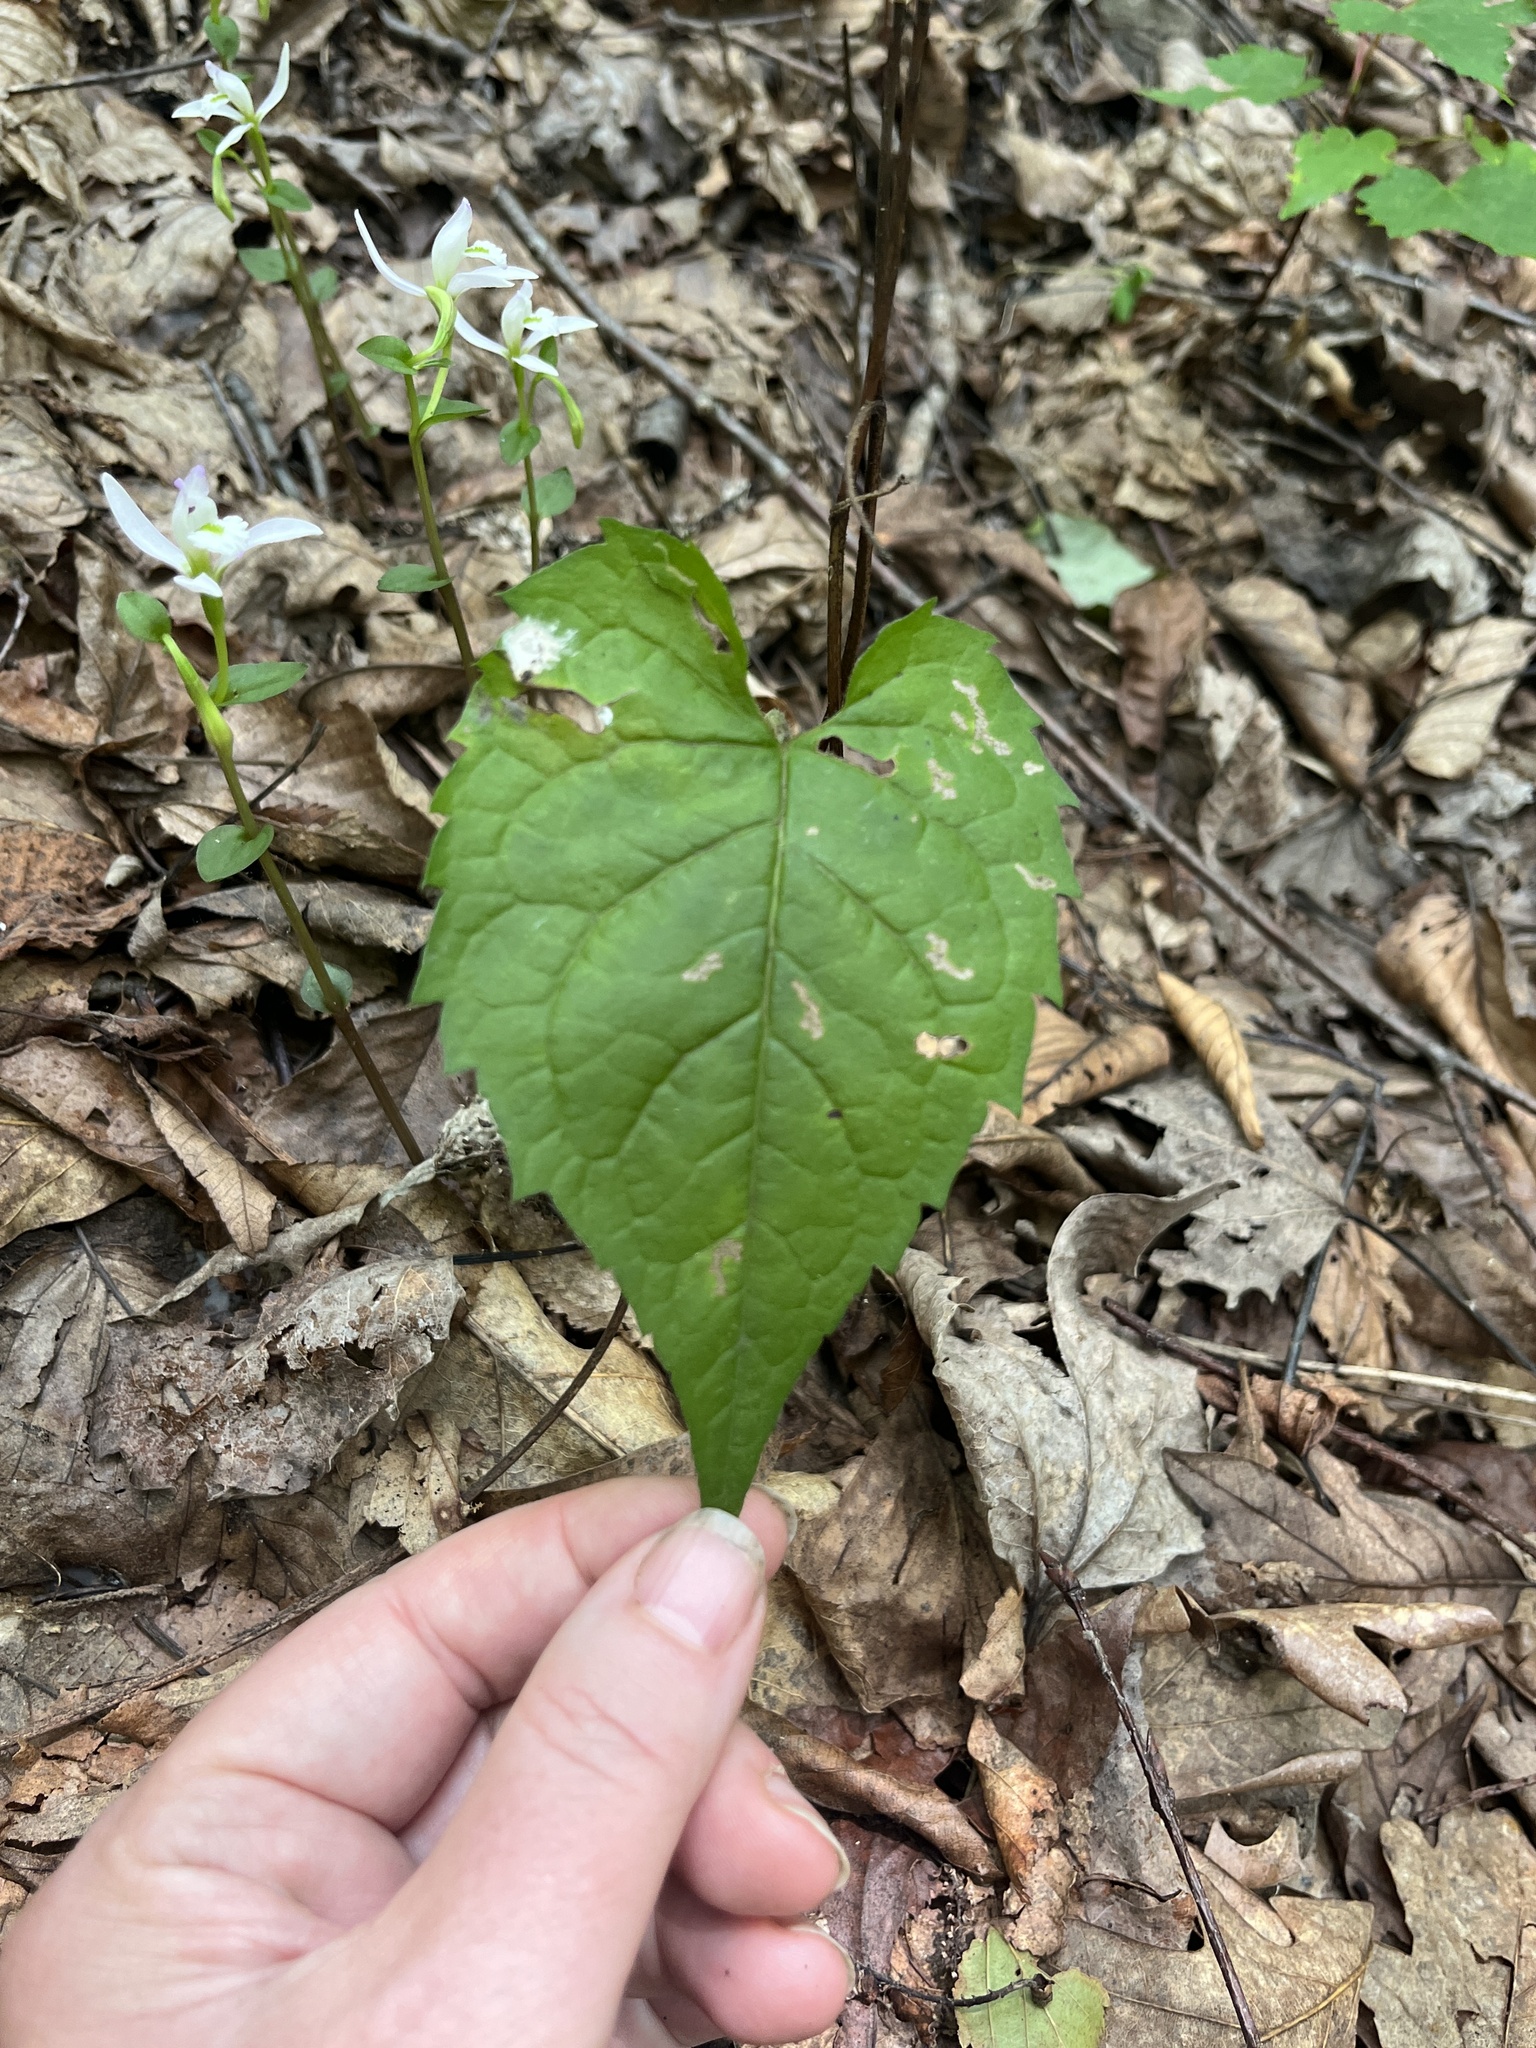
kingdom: Plantae
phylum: Tracheophyta
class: Magnoliopsida
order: Asterales
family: Asteraceae
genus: Eurybia
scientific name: Eurybia divaricata
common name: White wood aster
